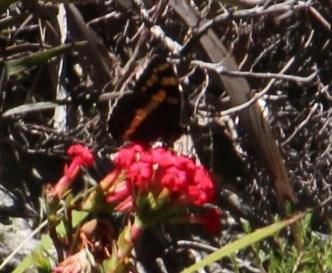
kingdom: Plantae
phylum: Tracheophyta
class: Magnoliopsida
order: Saxifragales
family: Crassulaceae
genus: Crassula
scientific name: Crassula coccinea
